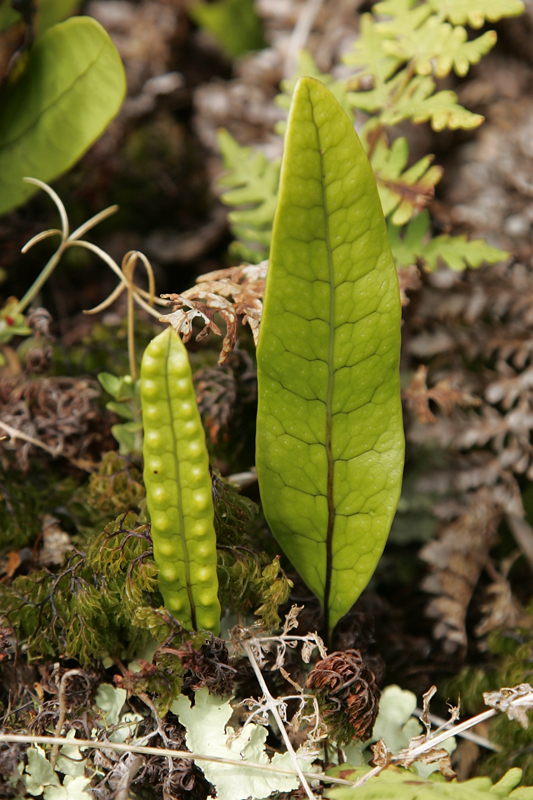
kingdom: Plantae
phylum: Tracheophyta
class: Polypodiopsida
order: Polypodiales
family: Polypodiaceae
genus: Lecanopteris
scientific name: Lecanopteris pustulata
